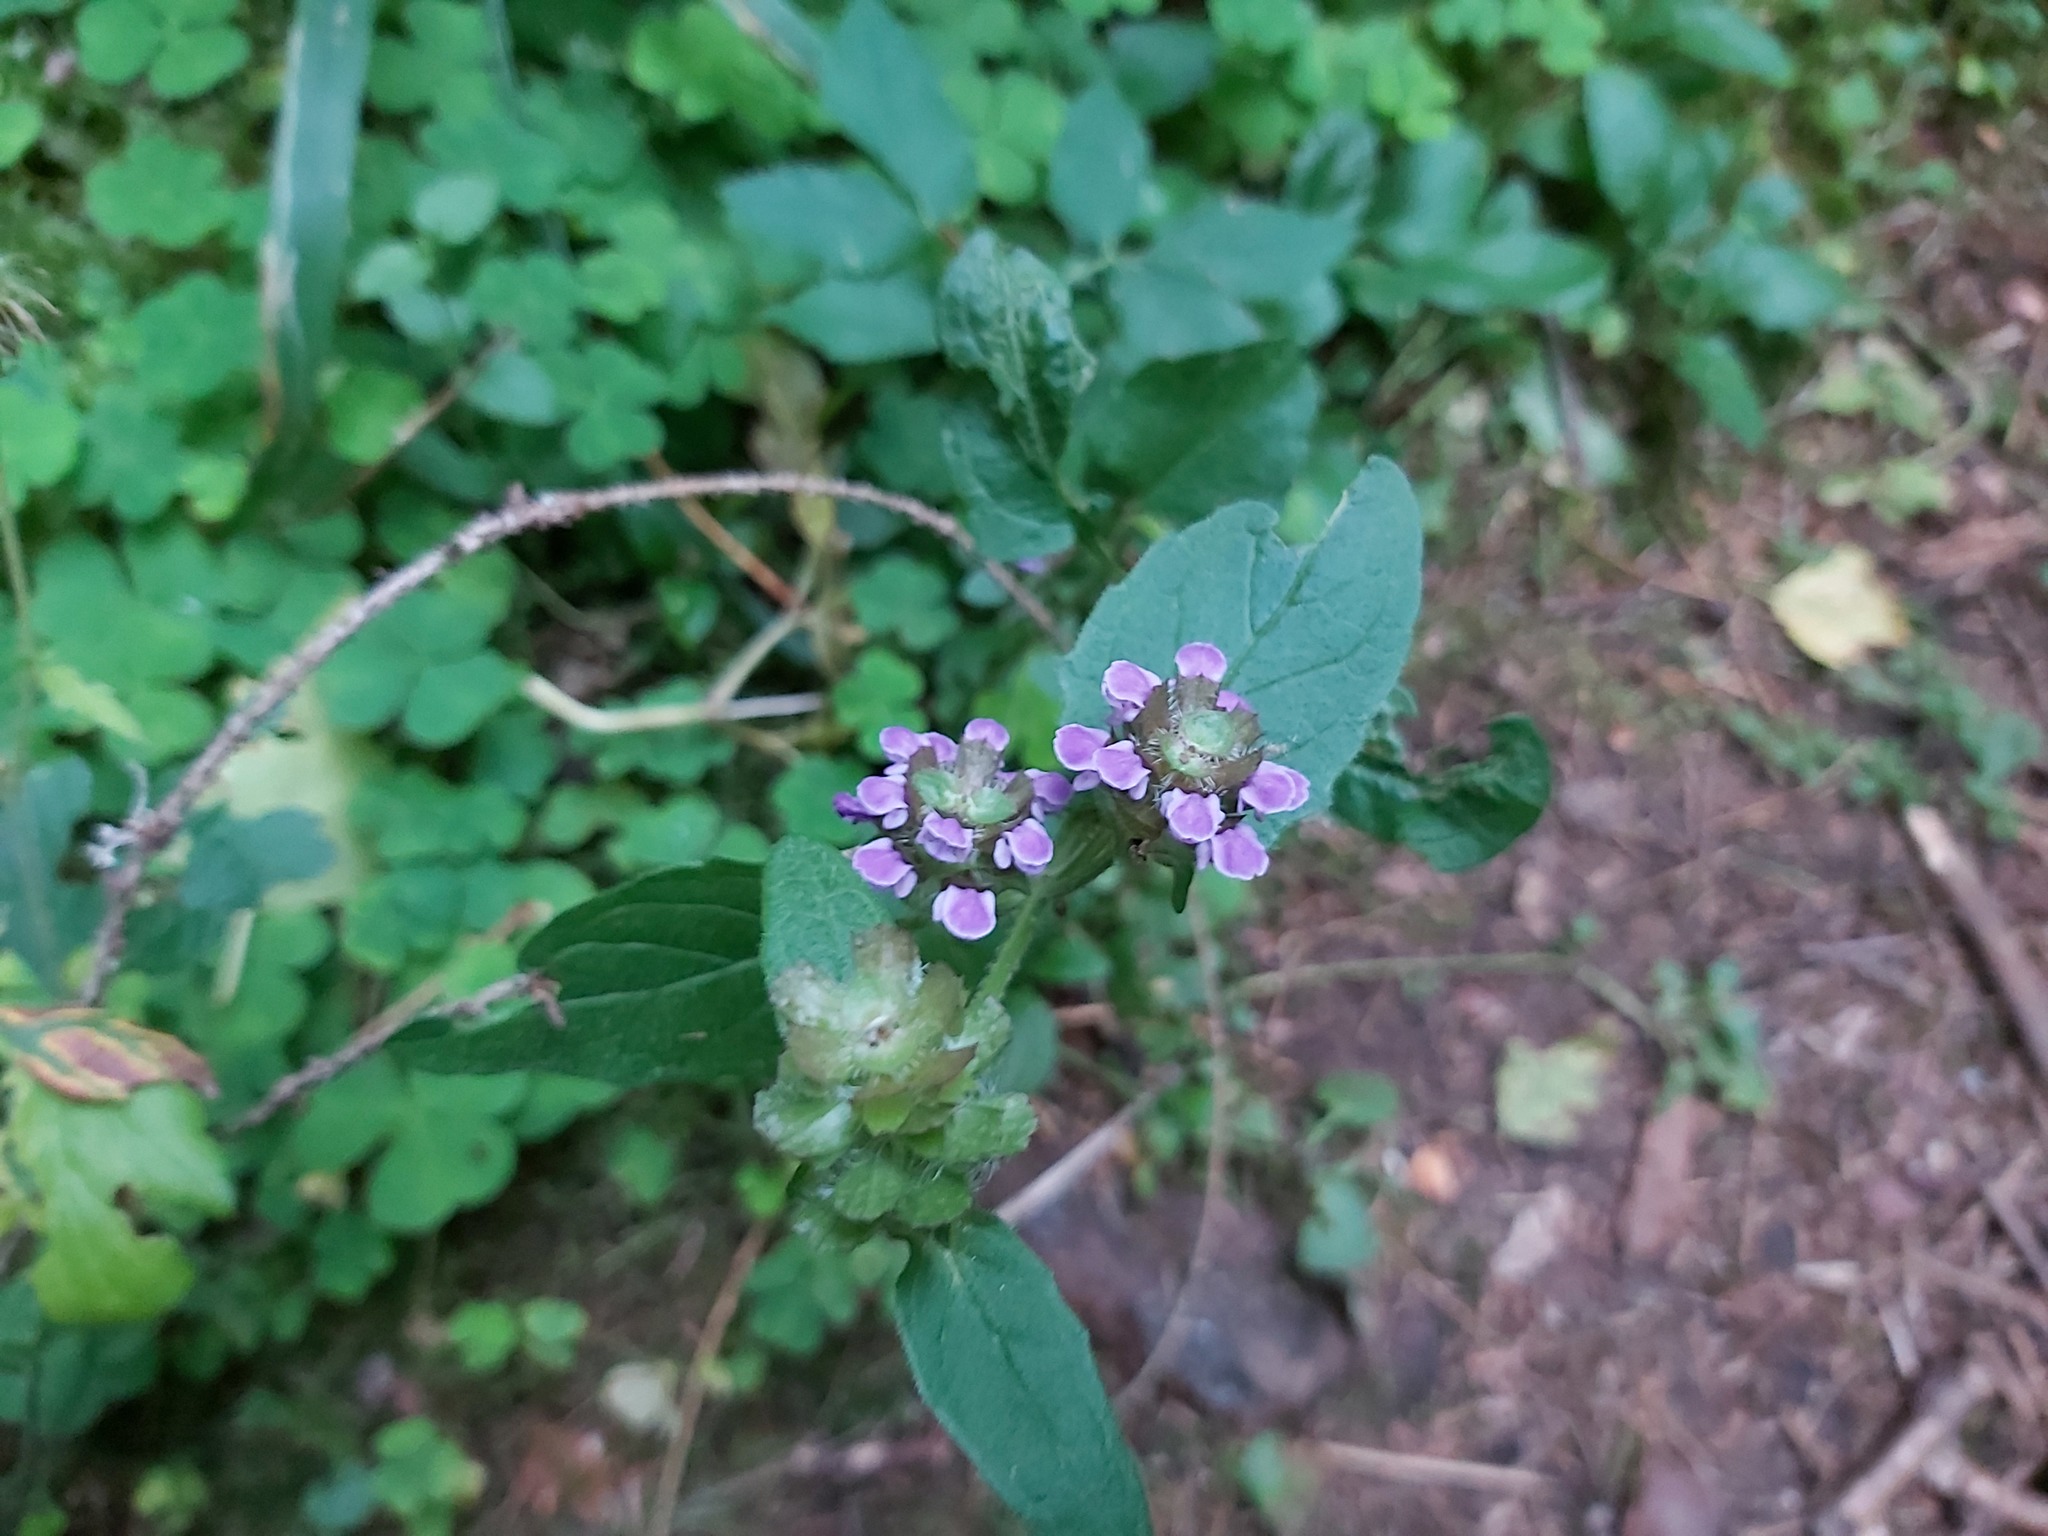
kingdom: Plantae
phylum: Tracheophyta
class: Magnoliopsida
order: Lamiales
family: Lamiaceae
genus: Prunella
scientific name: Prunella vulgaris
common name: Heal-all
